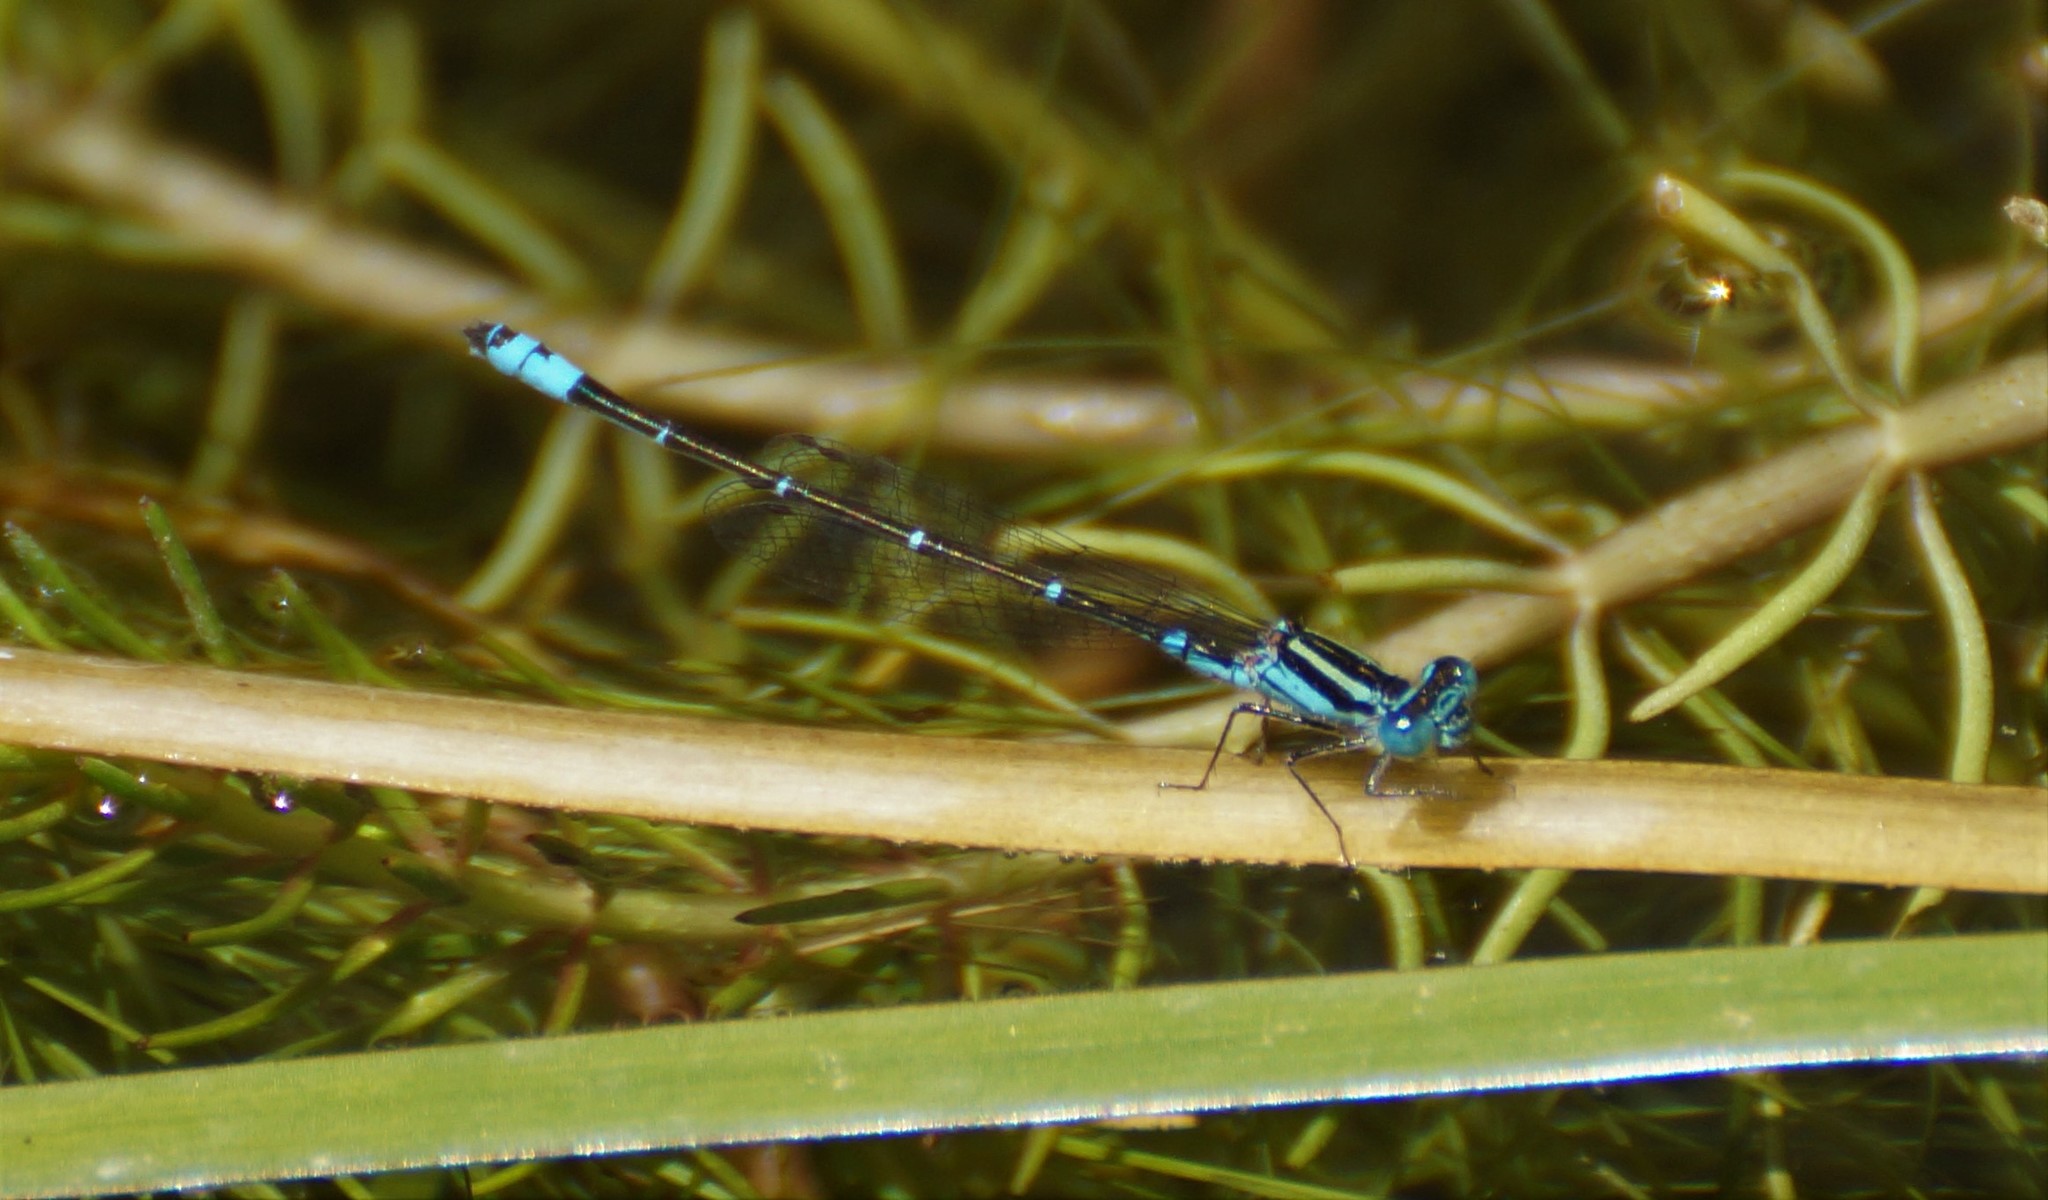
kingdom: Animalia
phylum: Arthropoda
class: Insecta
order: Odonata
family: Coenagrionidae
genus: Austroagrion
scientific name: Austroagrion watsoni
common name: Eastern billabongfly
